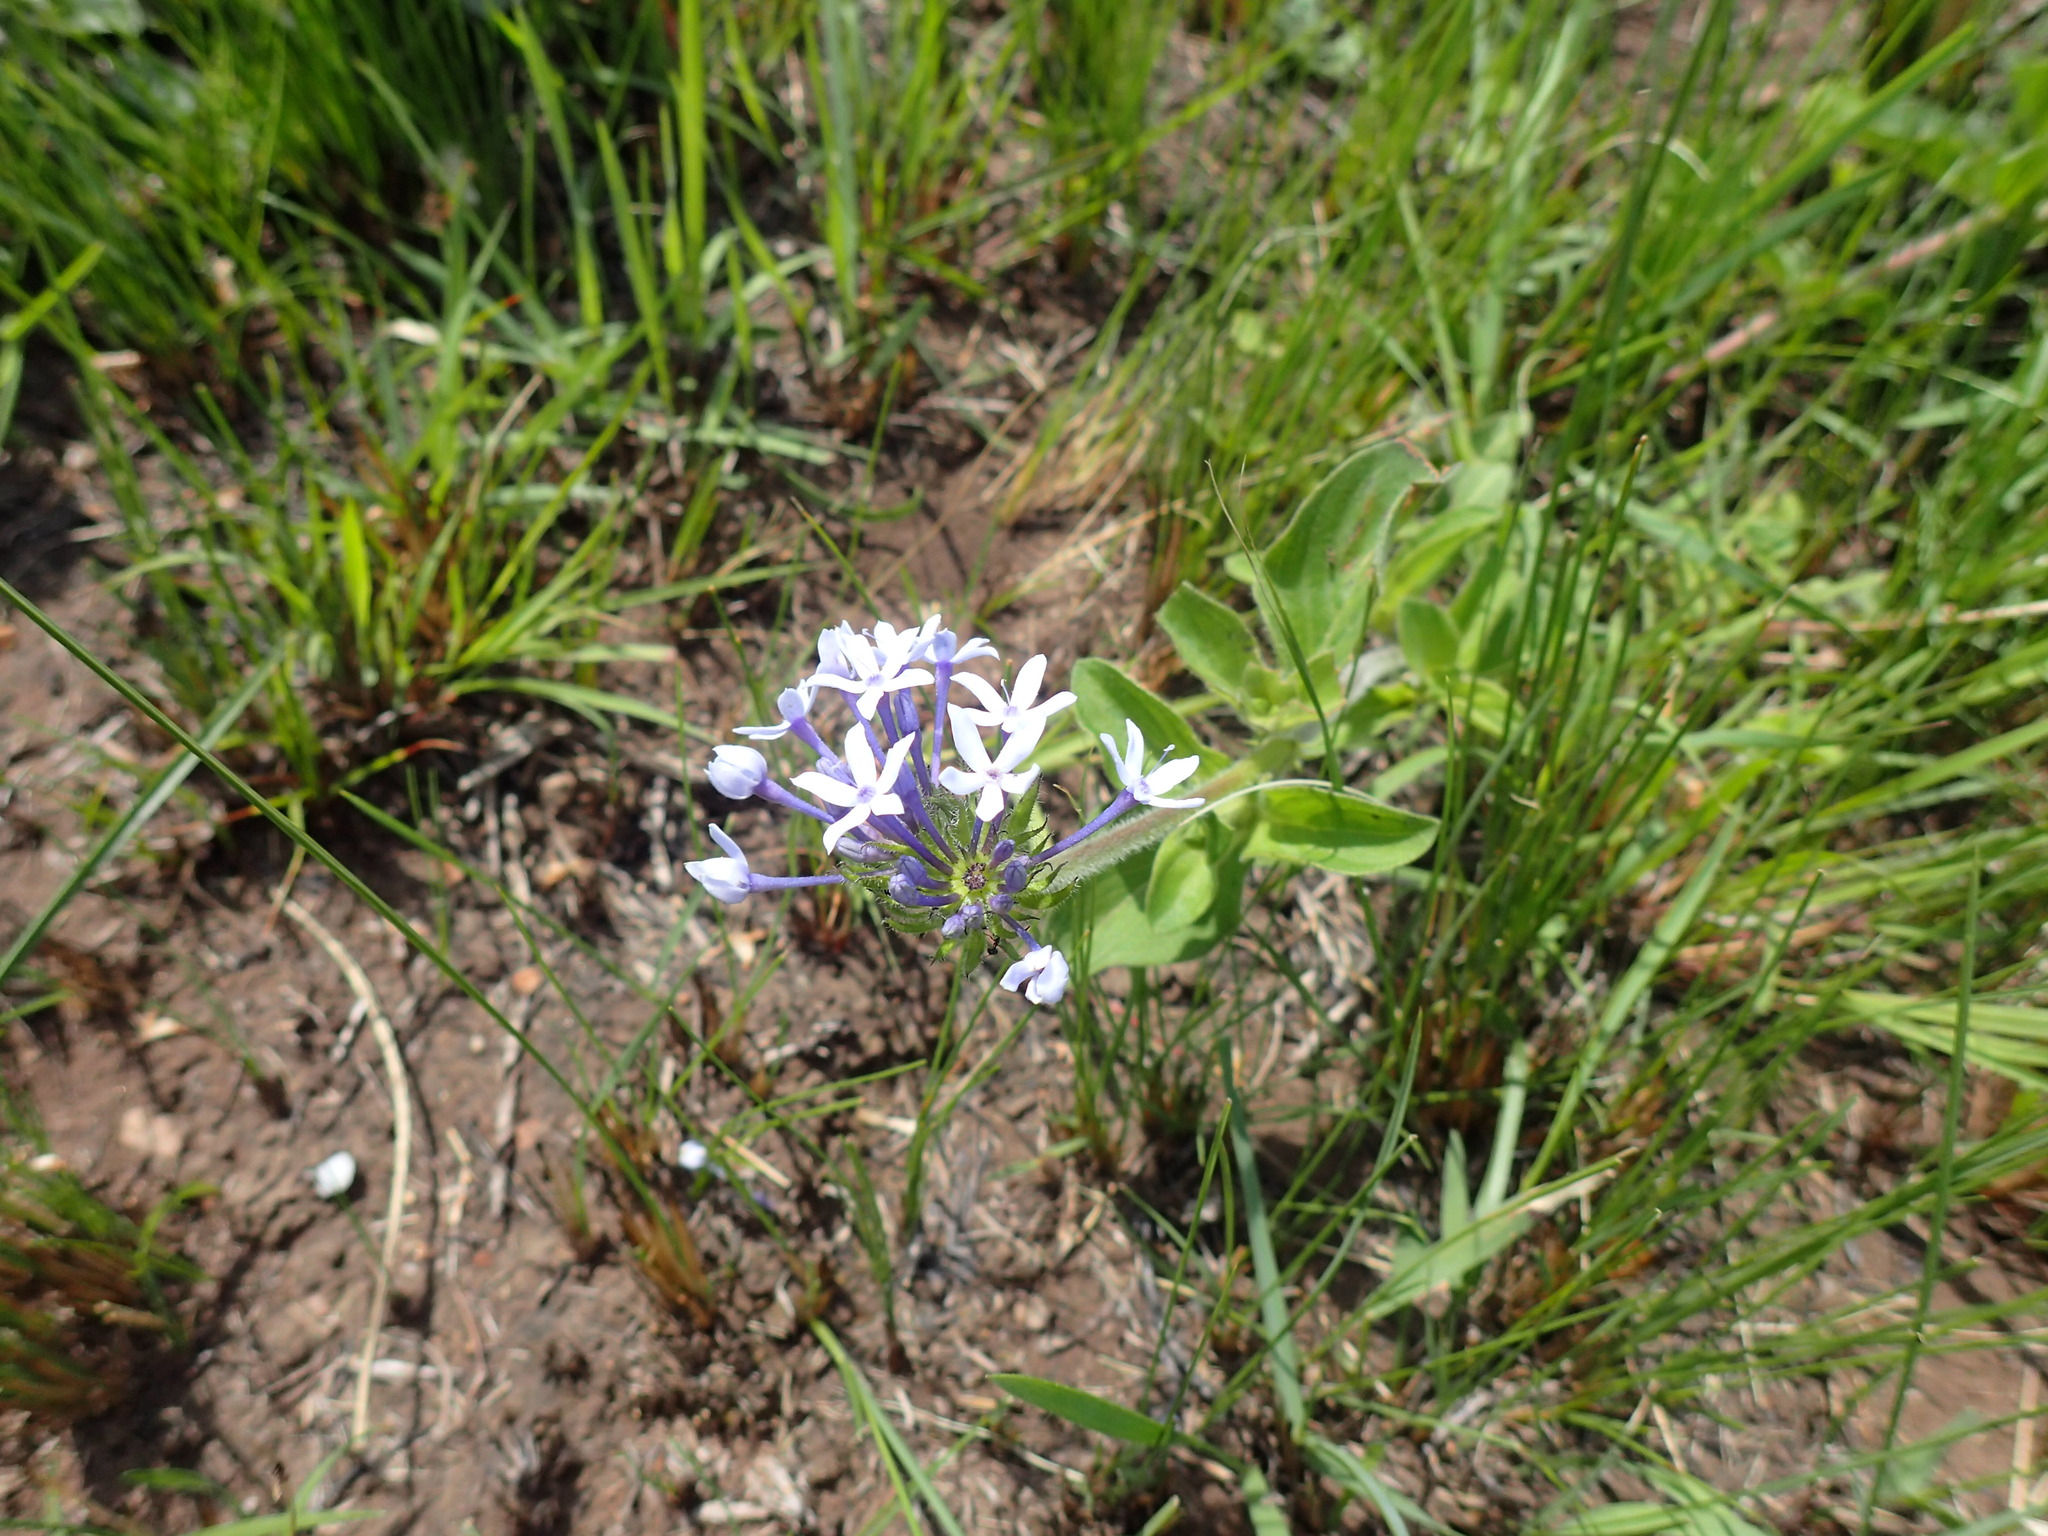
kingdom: Plantae
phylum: Tracheophyta
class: Magnoliopsida
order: Gentianales
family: Rubiaceae
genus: Pentanisia
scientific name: Pentanisia prunelloides
